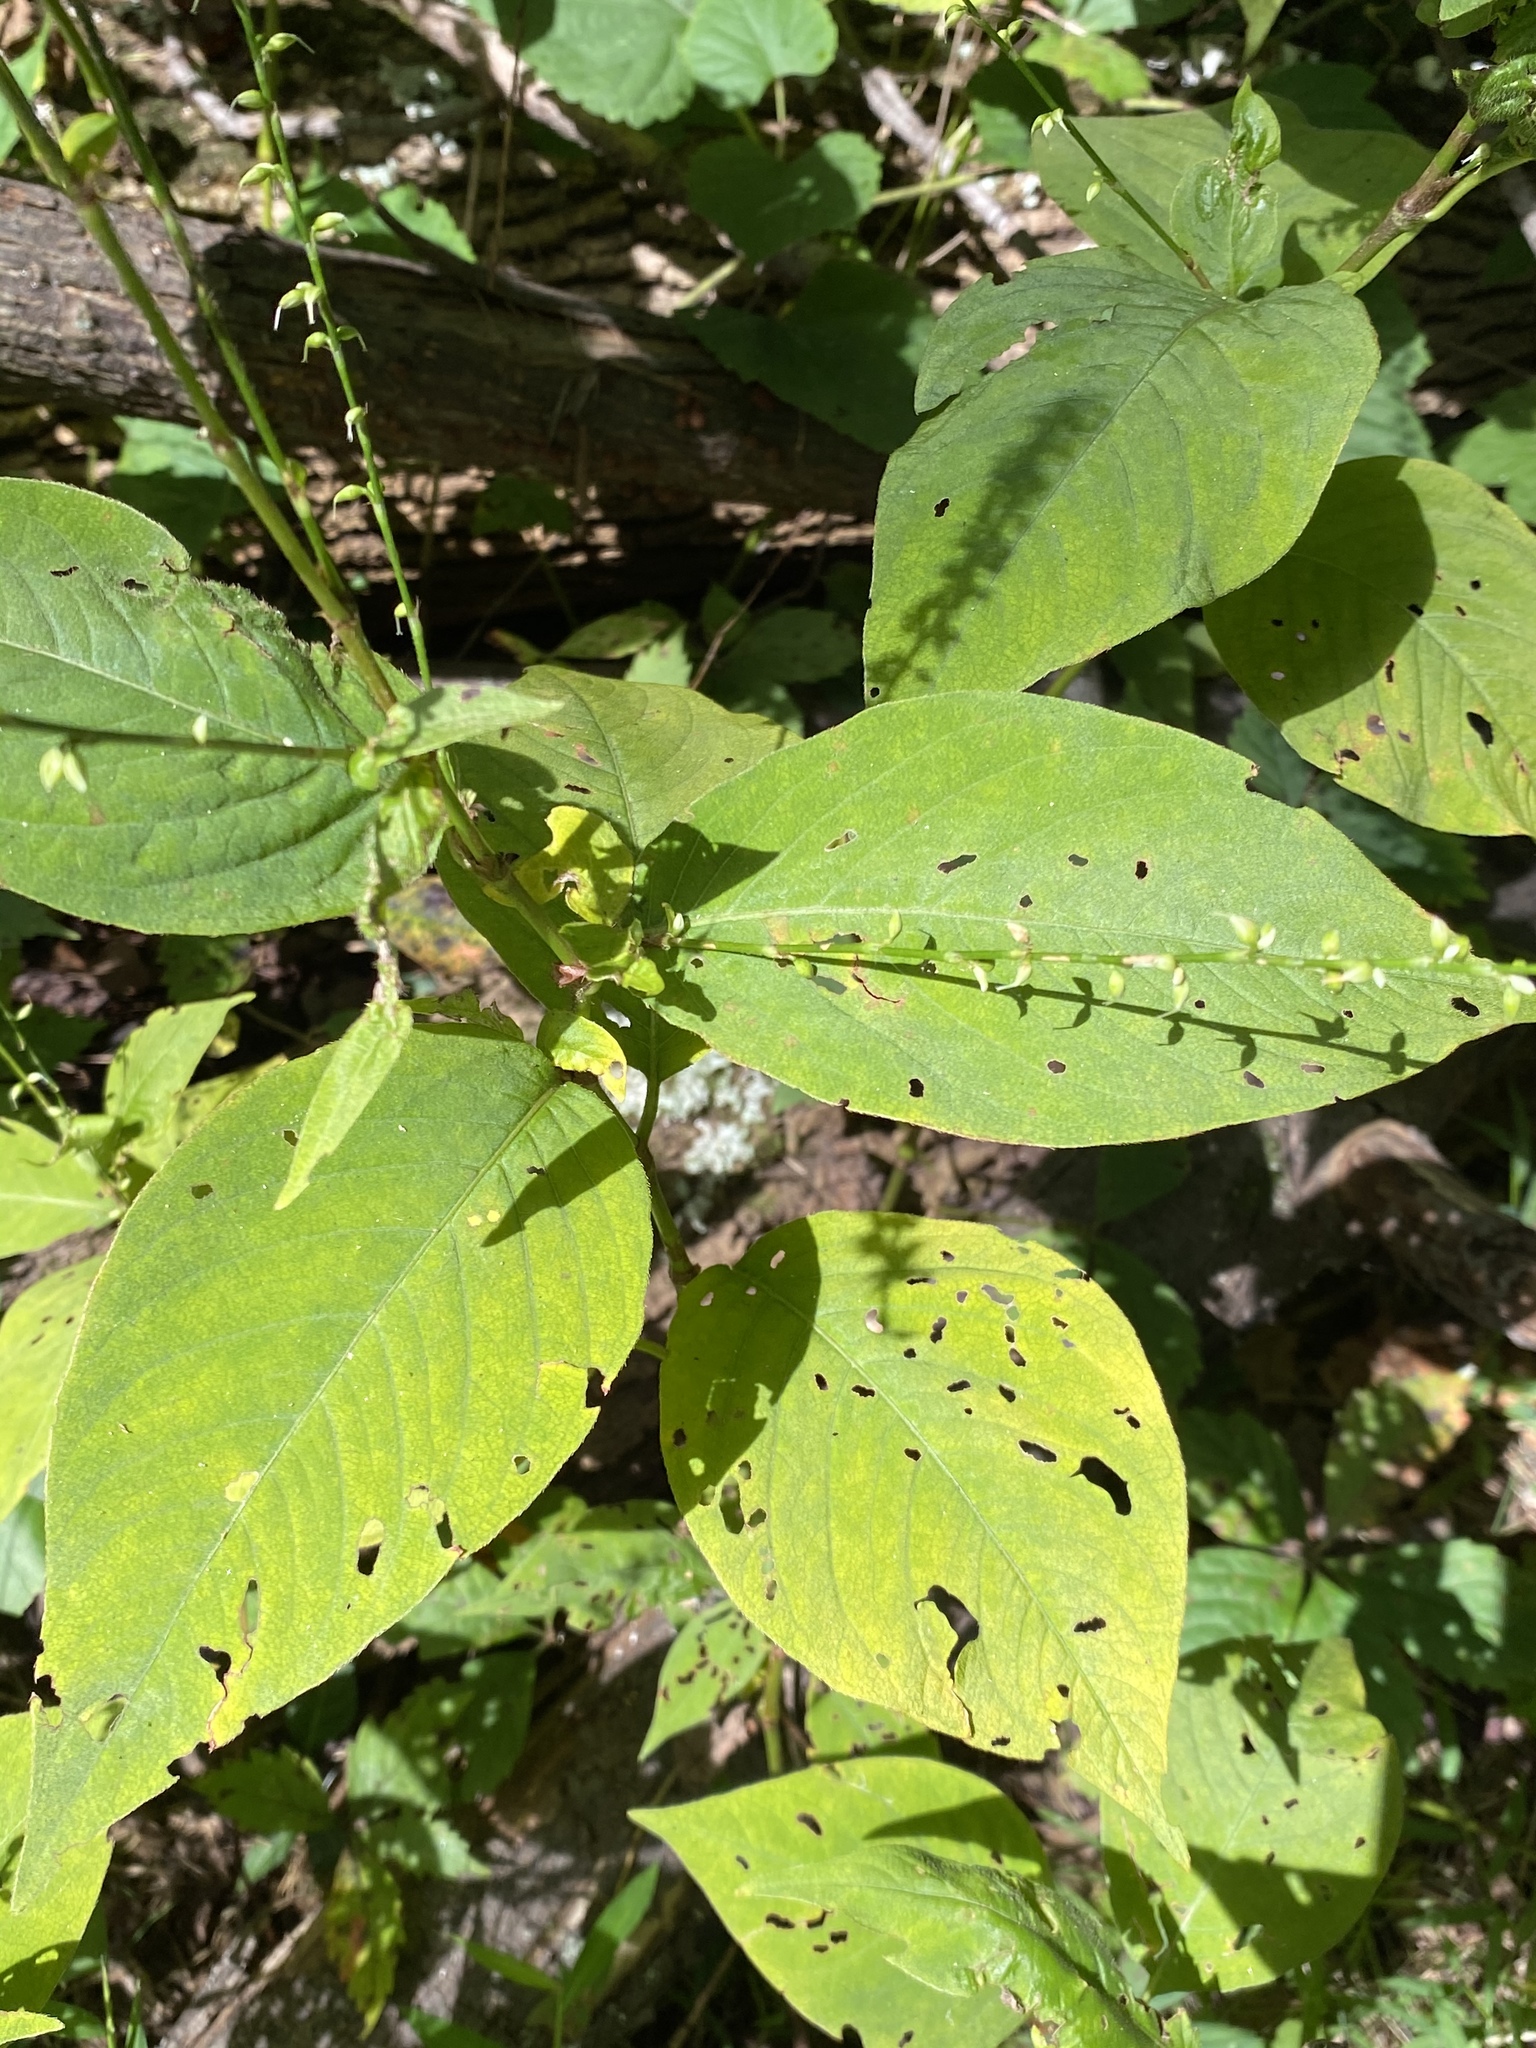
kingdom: Plantae
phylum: Tracheophyta
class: Magnoliopsida
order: Caryophyllales
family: Polygonaceae
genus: Persicaria
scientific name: Persicaria virginiana
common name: Jumpseed
